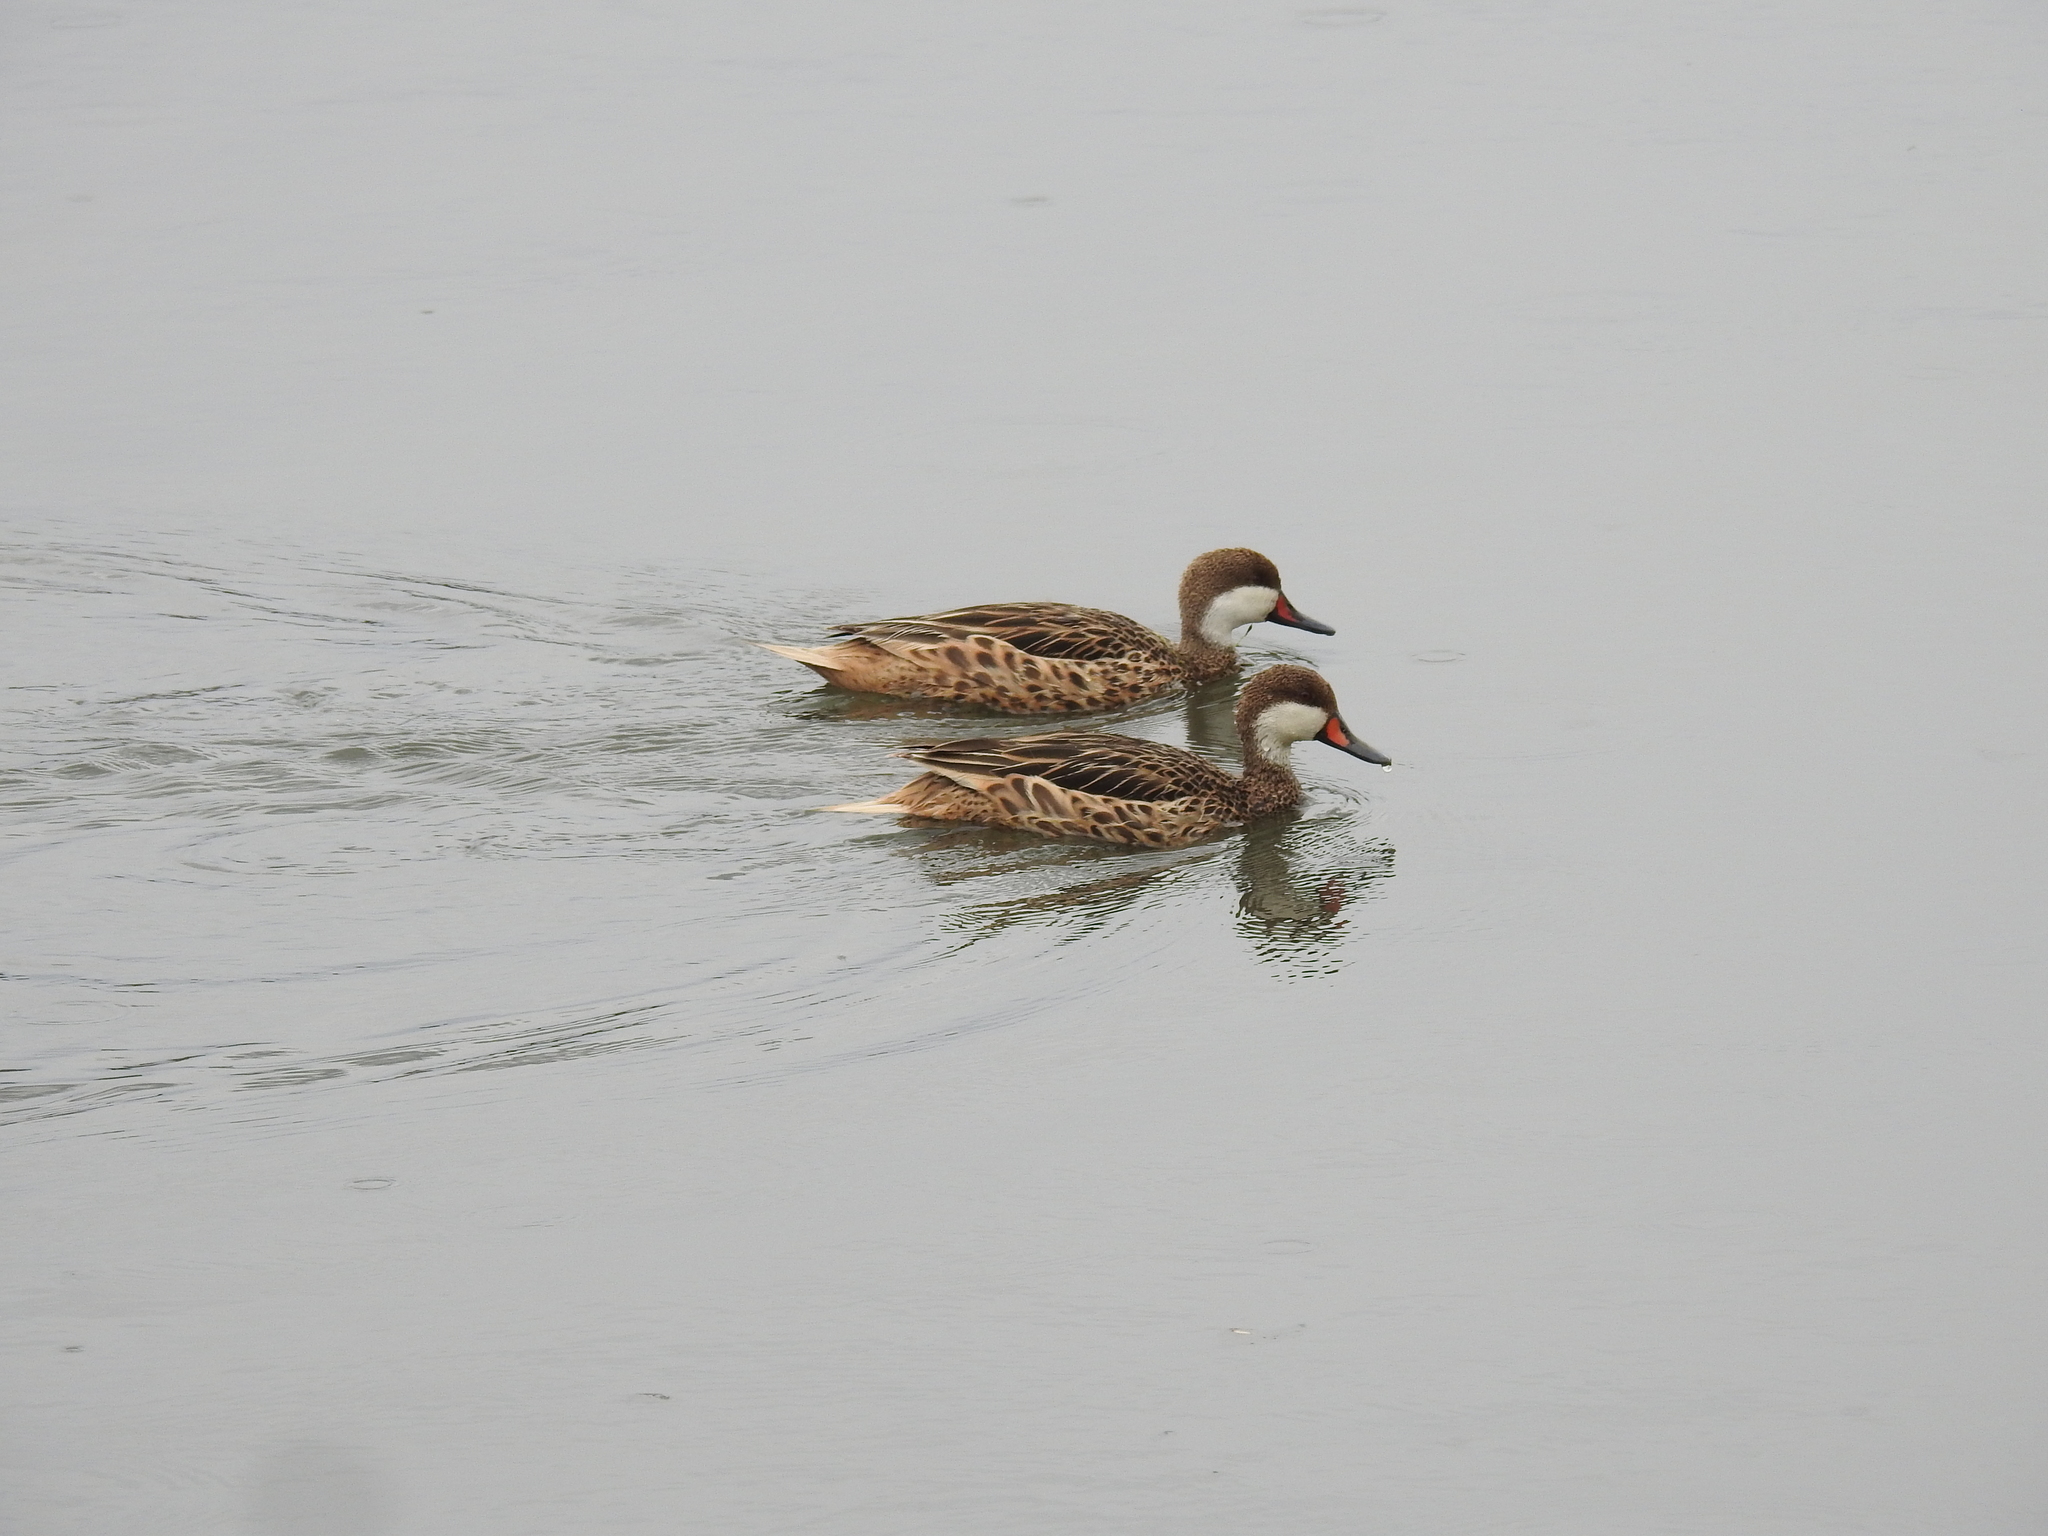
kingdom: Animalia
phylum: Chordata
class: Aves
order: Anseriformes
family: Anatidae
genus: Anas
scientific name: Anas bahamensis
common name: White-cheeked pintail
